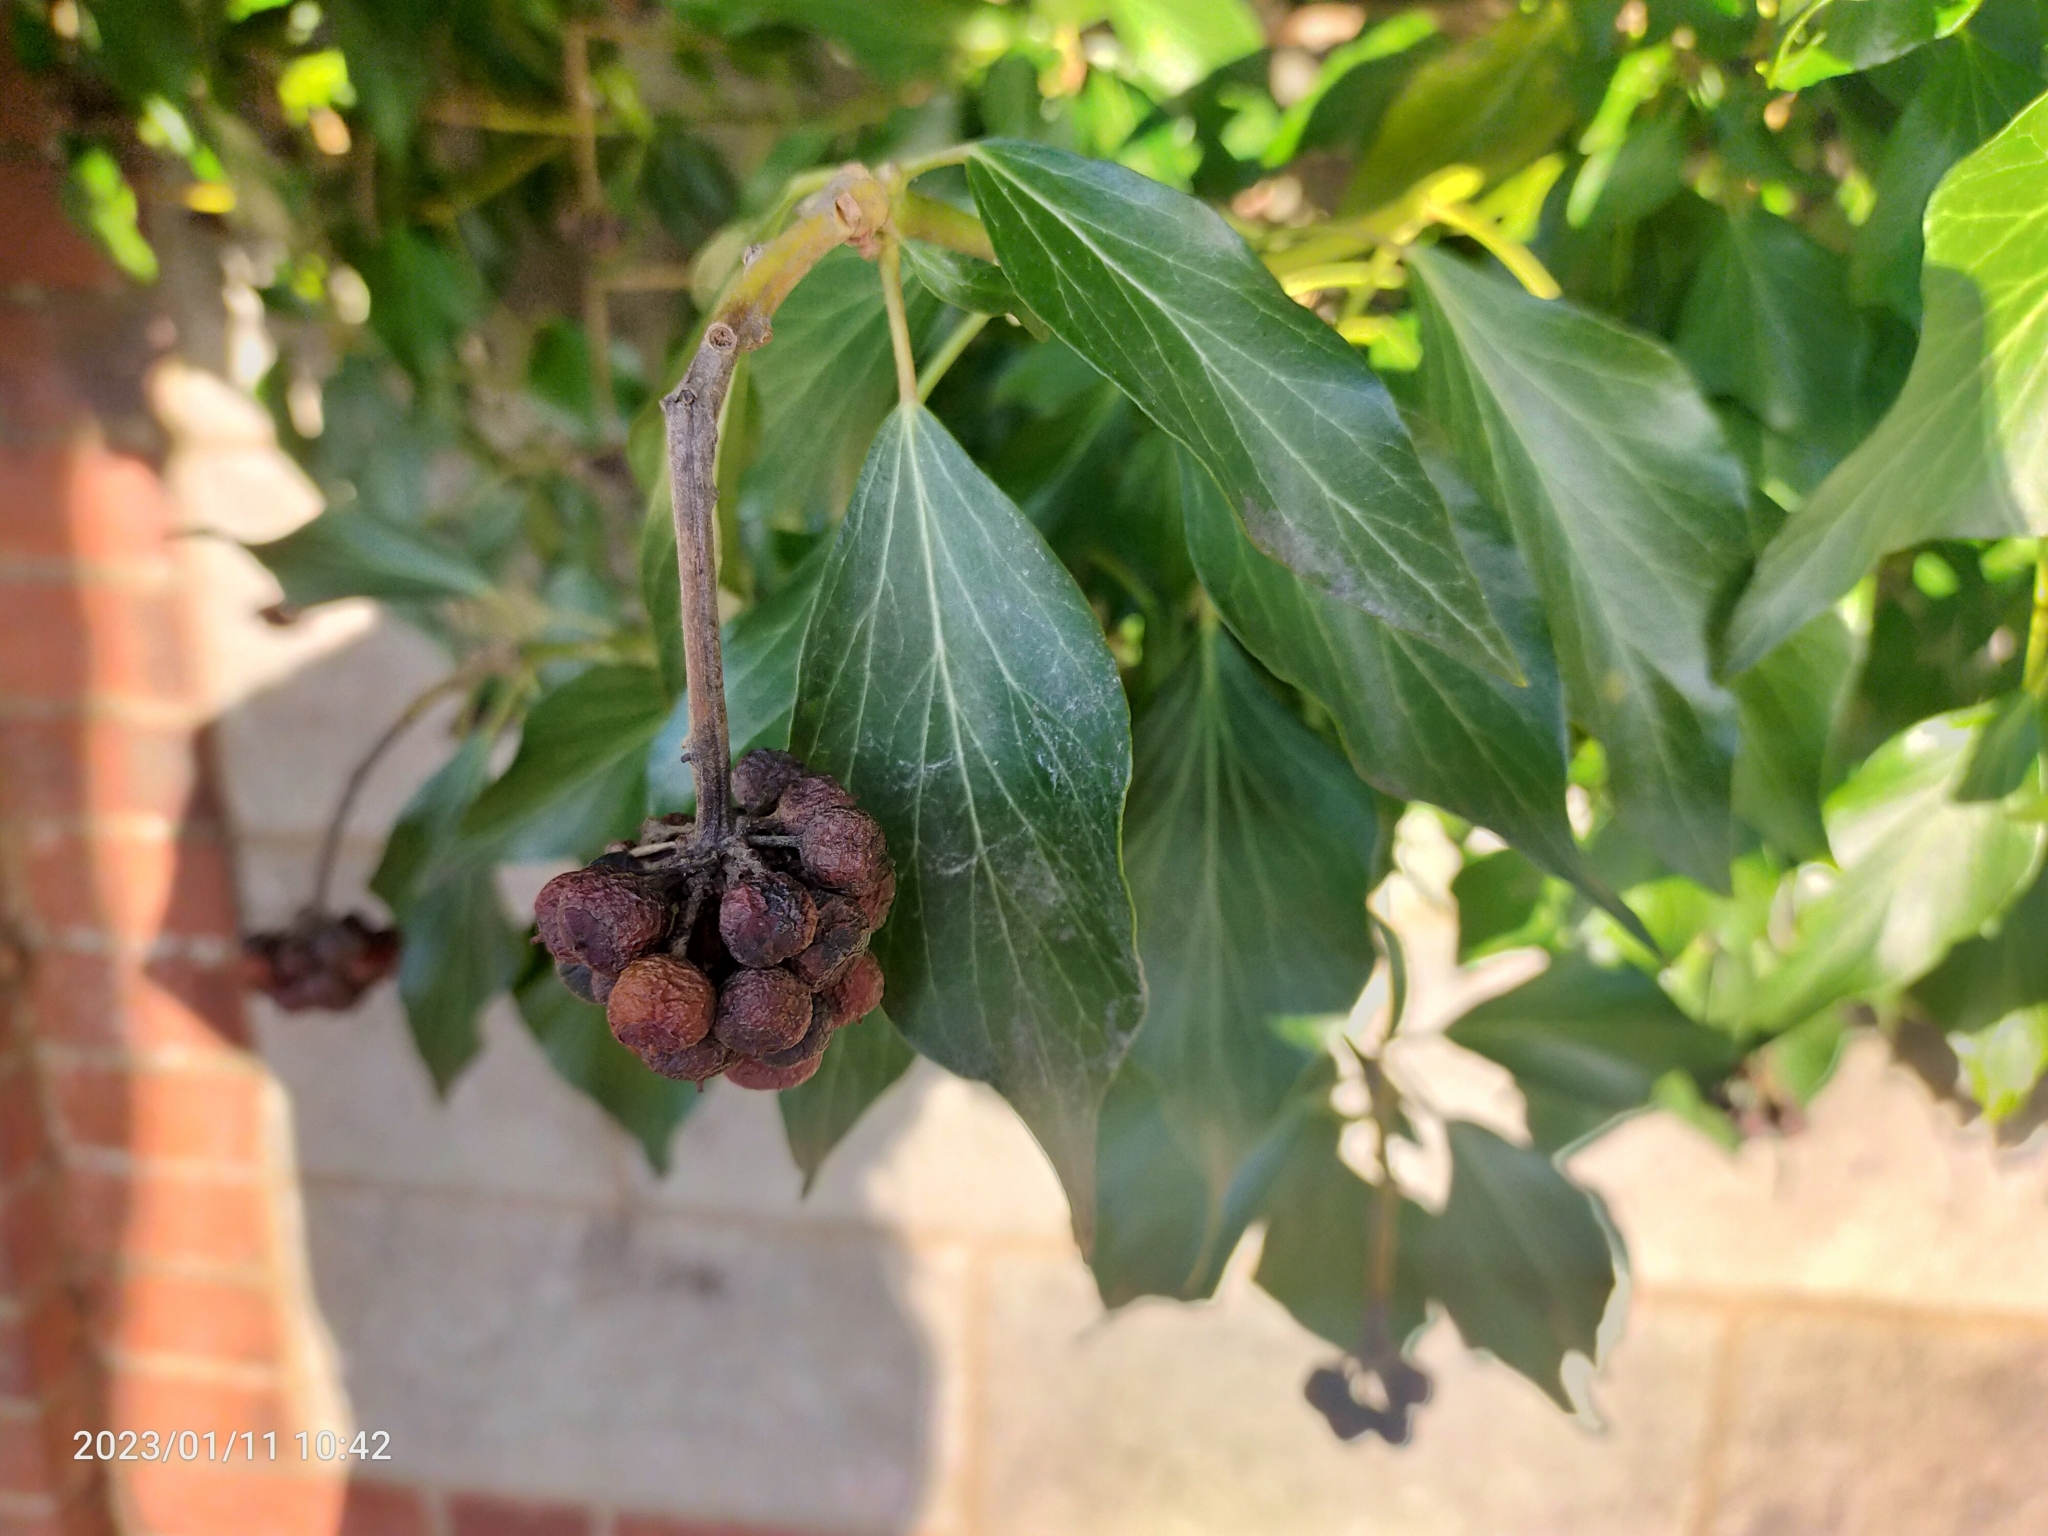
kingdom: Plantae
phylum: Tracheophyta
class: Magnoliopsida
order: Apiales
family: Araliaceae
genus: Hedera
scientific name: Hedera
